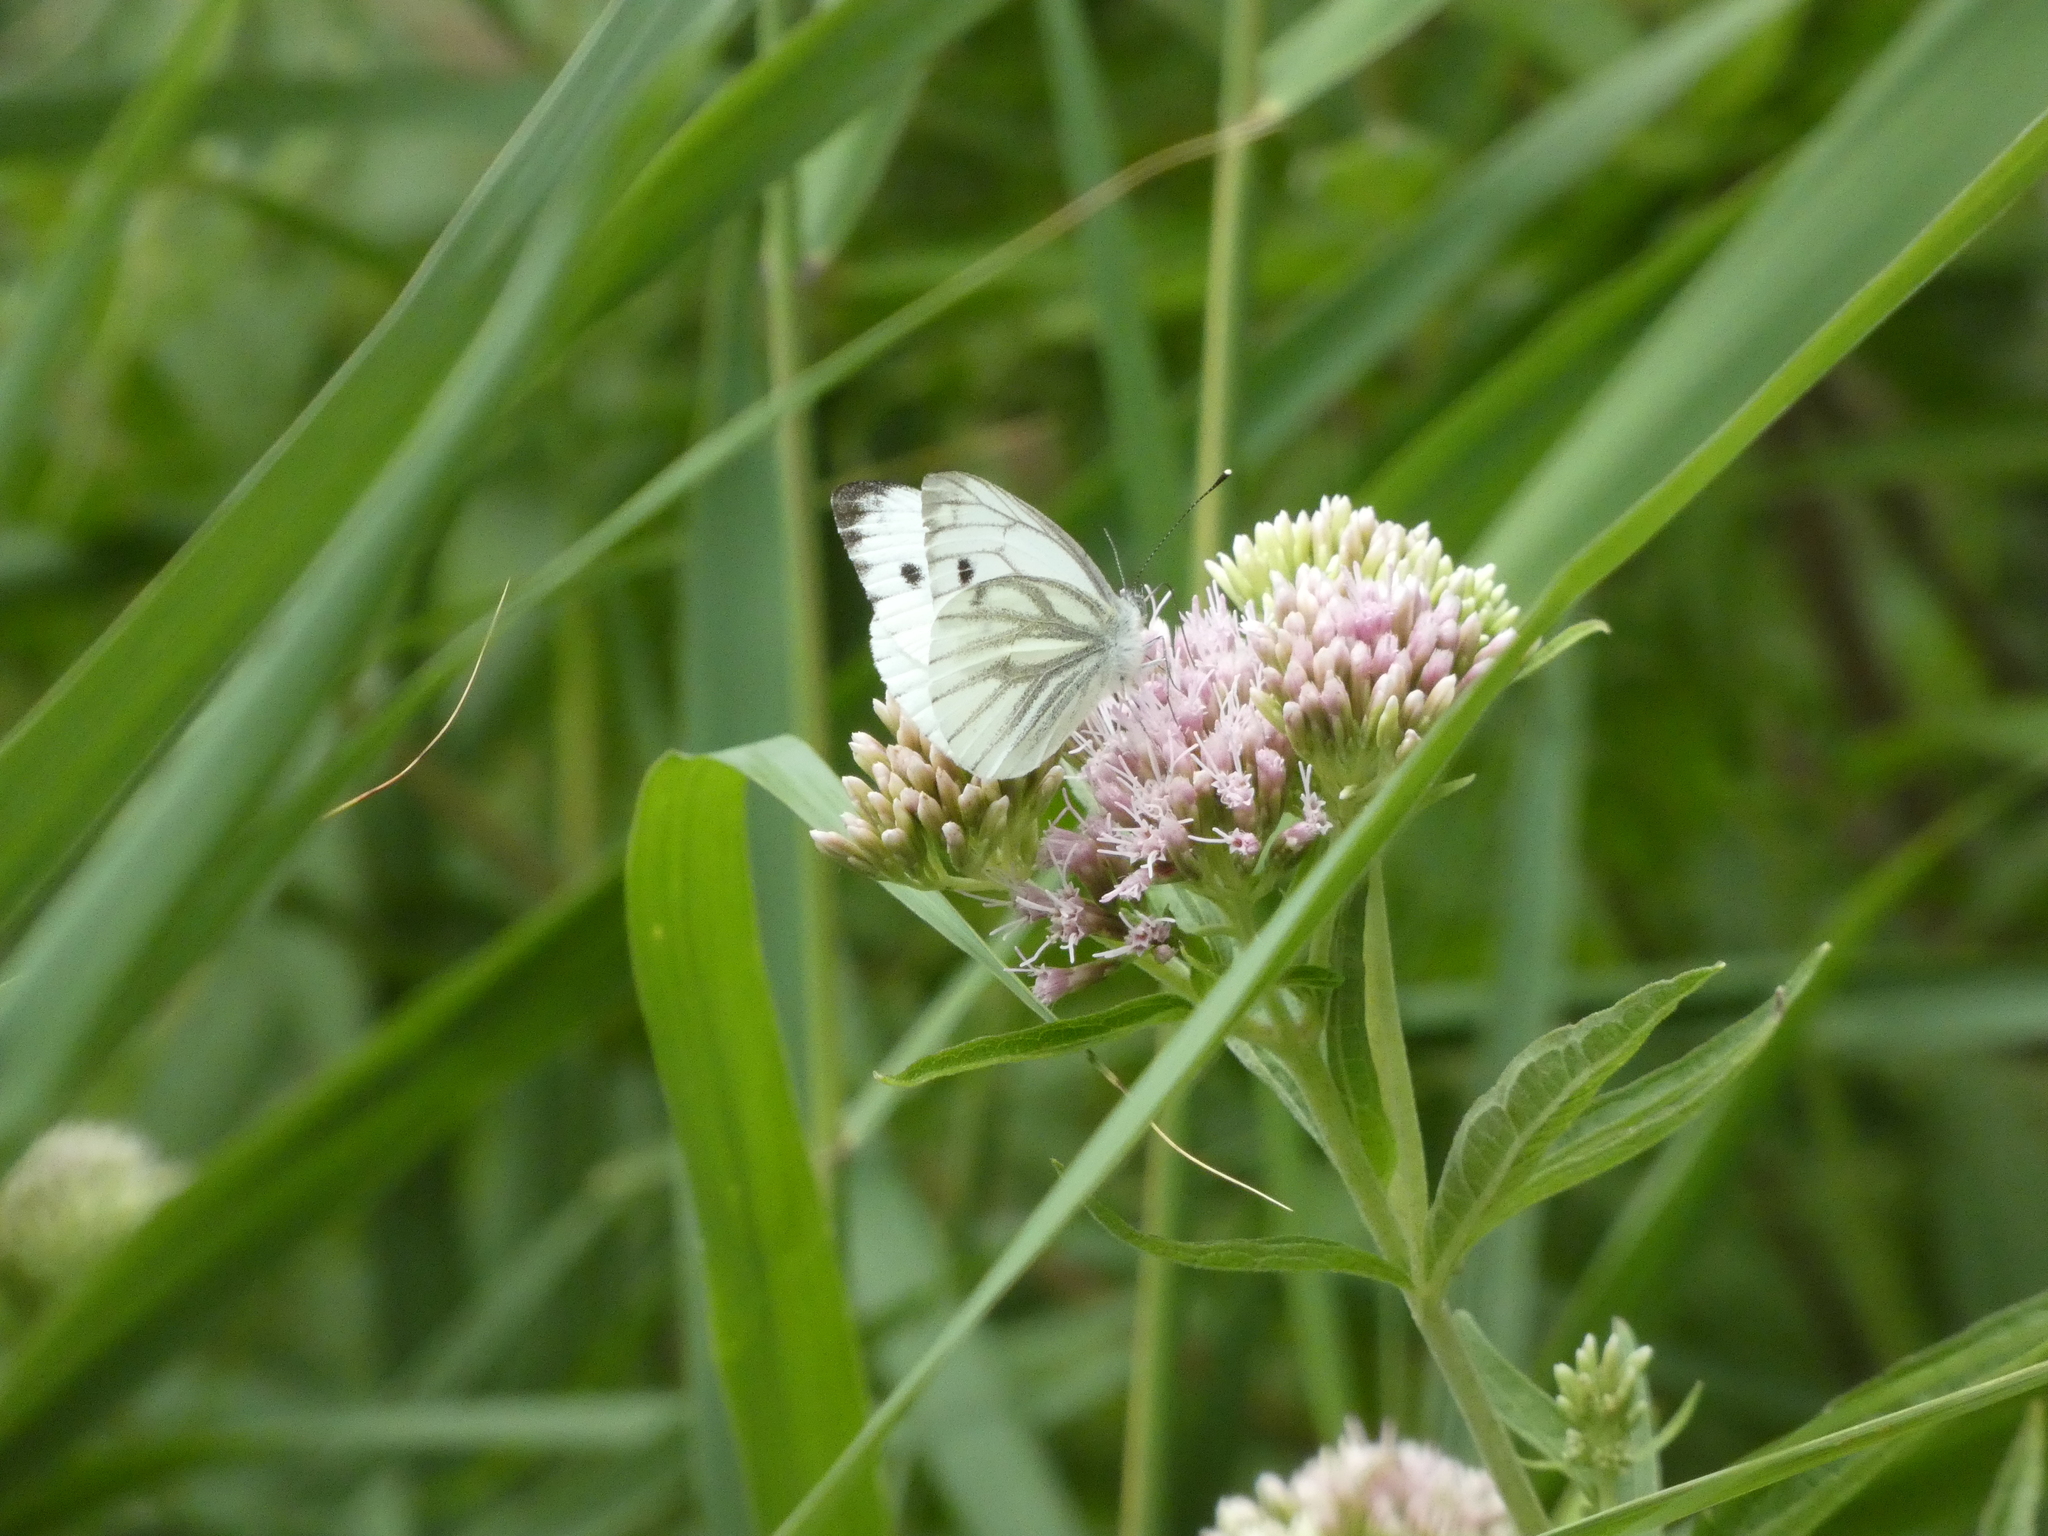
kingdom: Animalia
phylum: Arthropoda
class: Insecta
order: Lepidoptera
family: Pieridae
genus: Pieris
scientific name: Pieris napi
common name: Green-veined white
